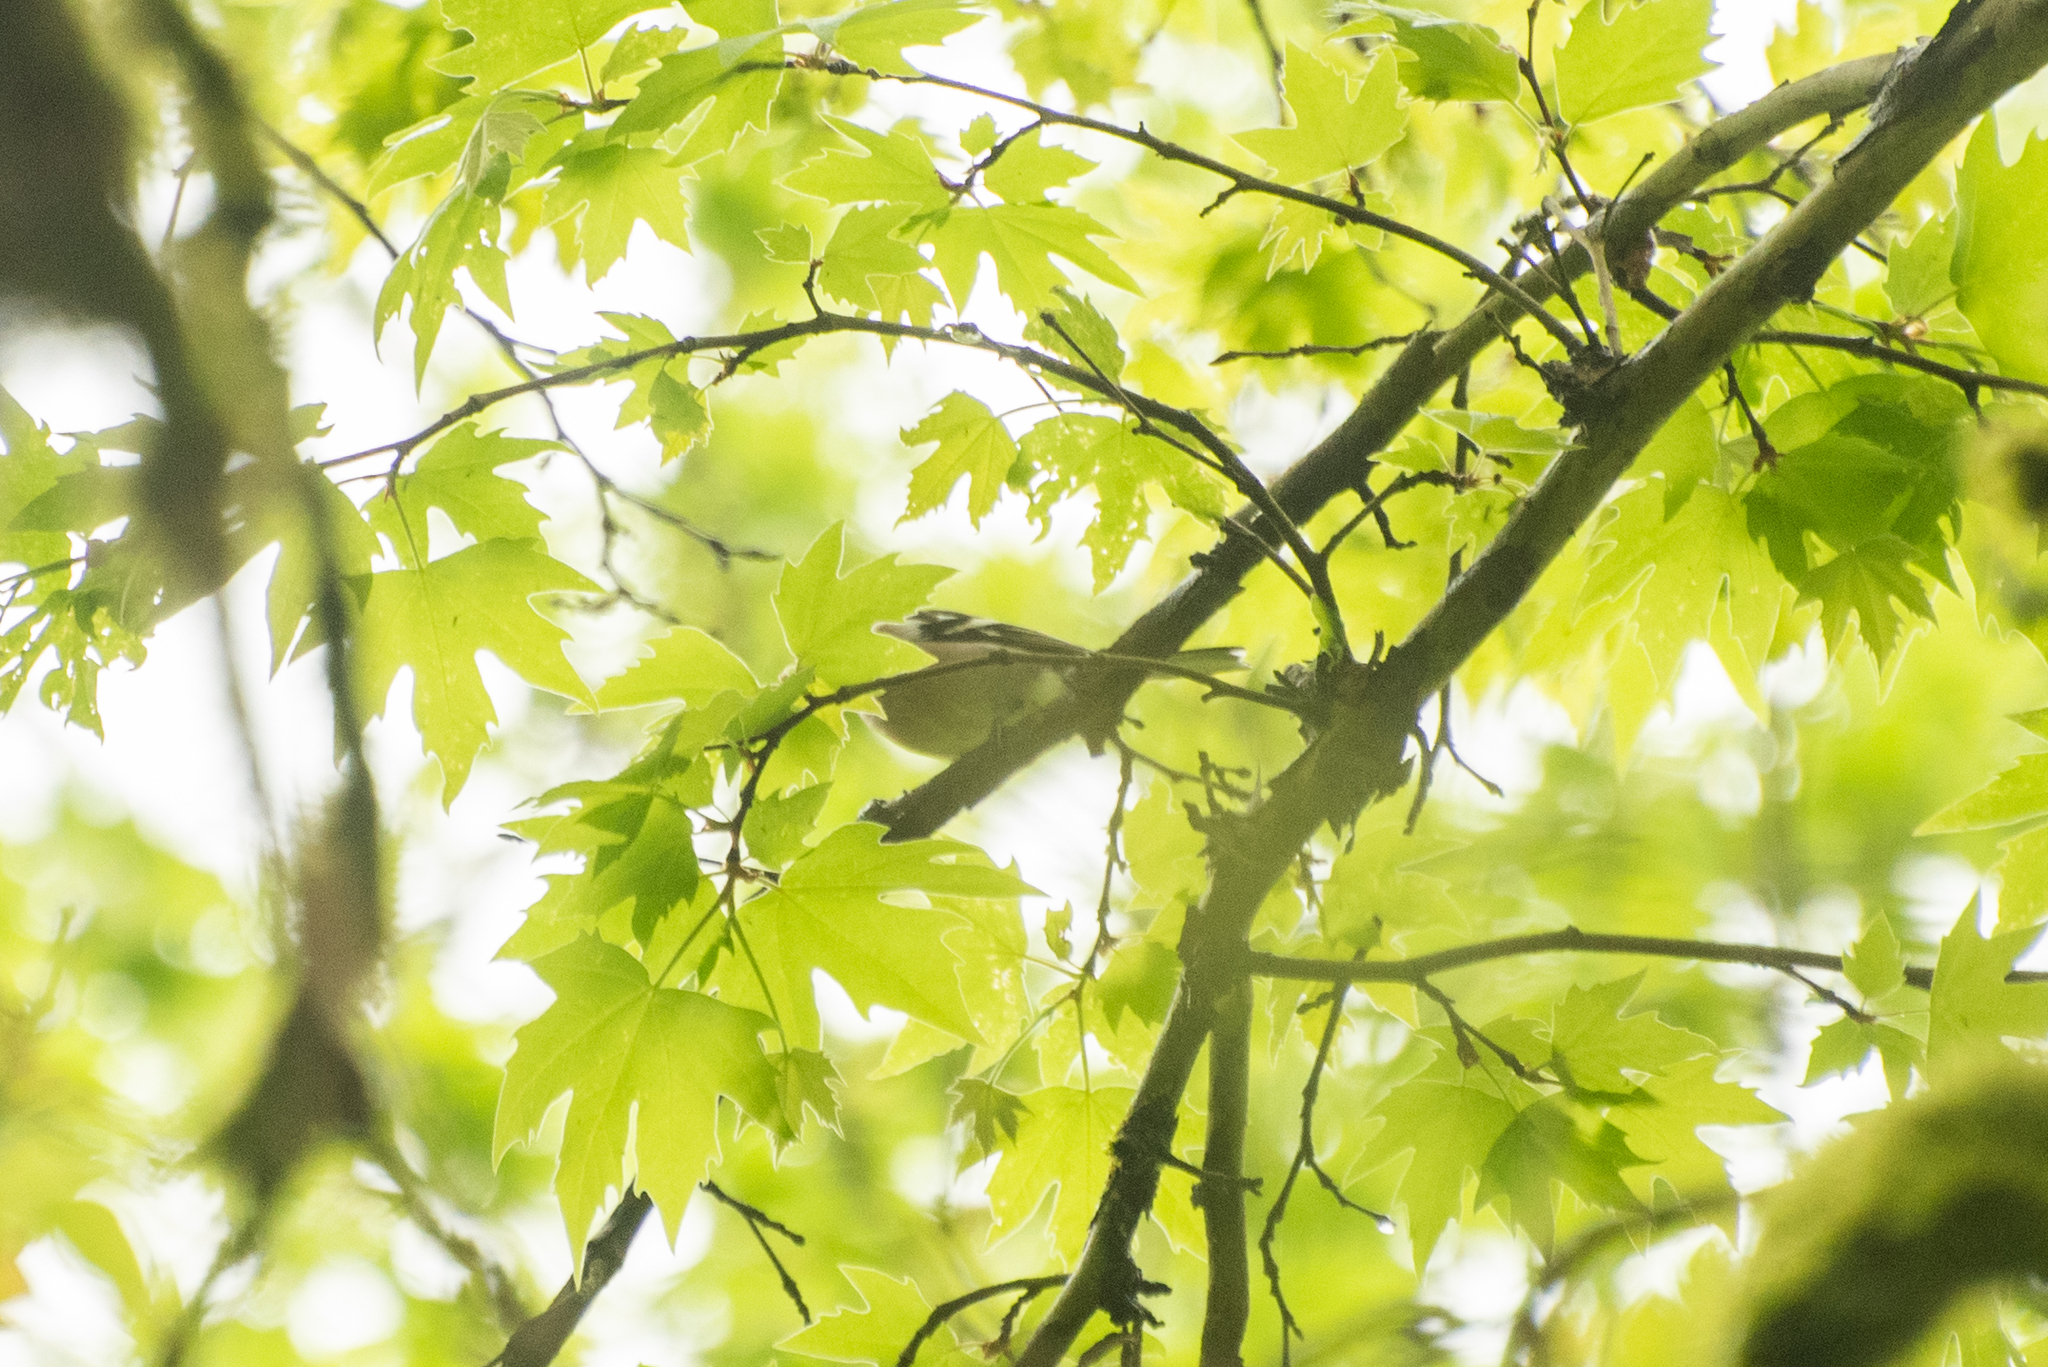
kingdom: Animalia
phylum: Chordata
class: Aves
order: Passeriformes
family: Fringillidae
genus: Fringilla
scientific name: Fringilla coelebs
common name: Common chaffinch
